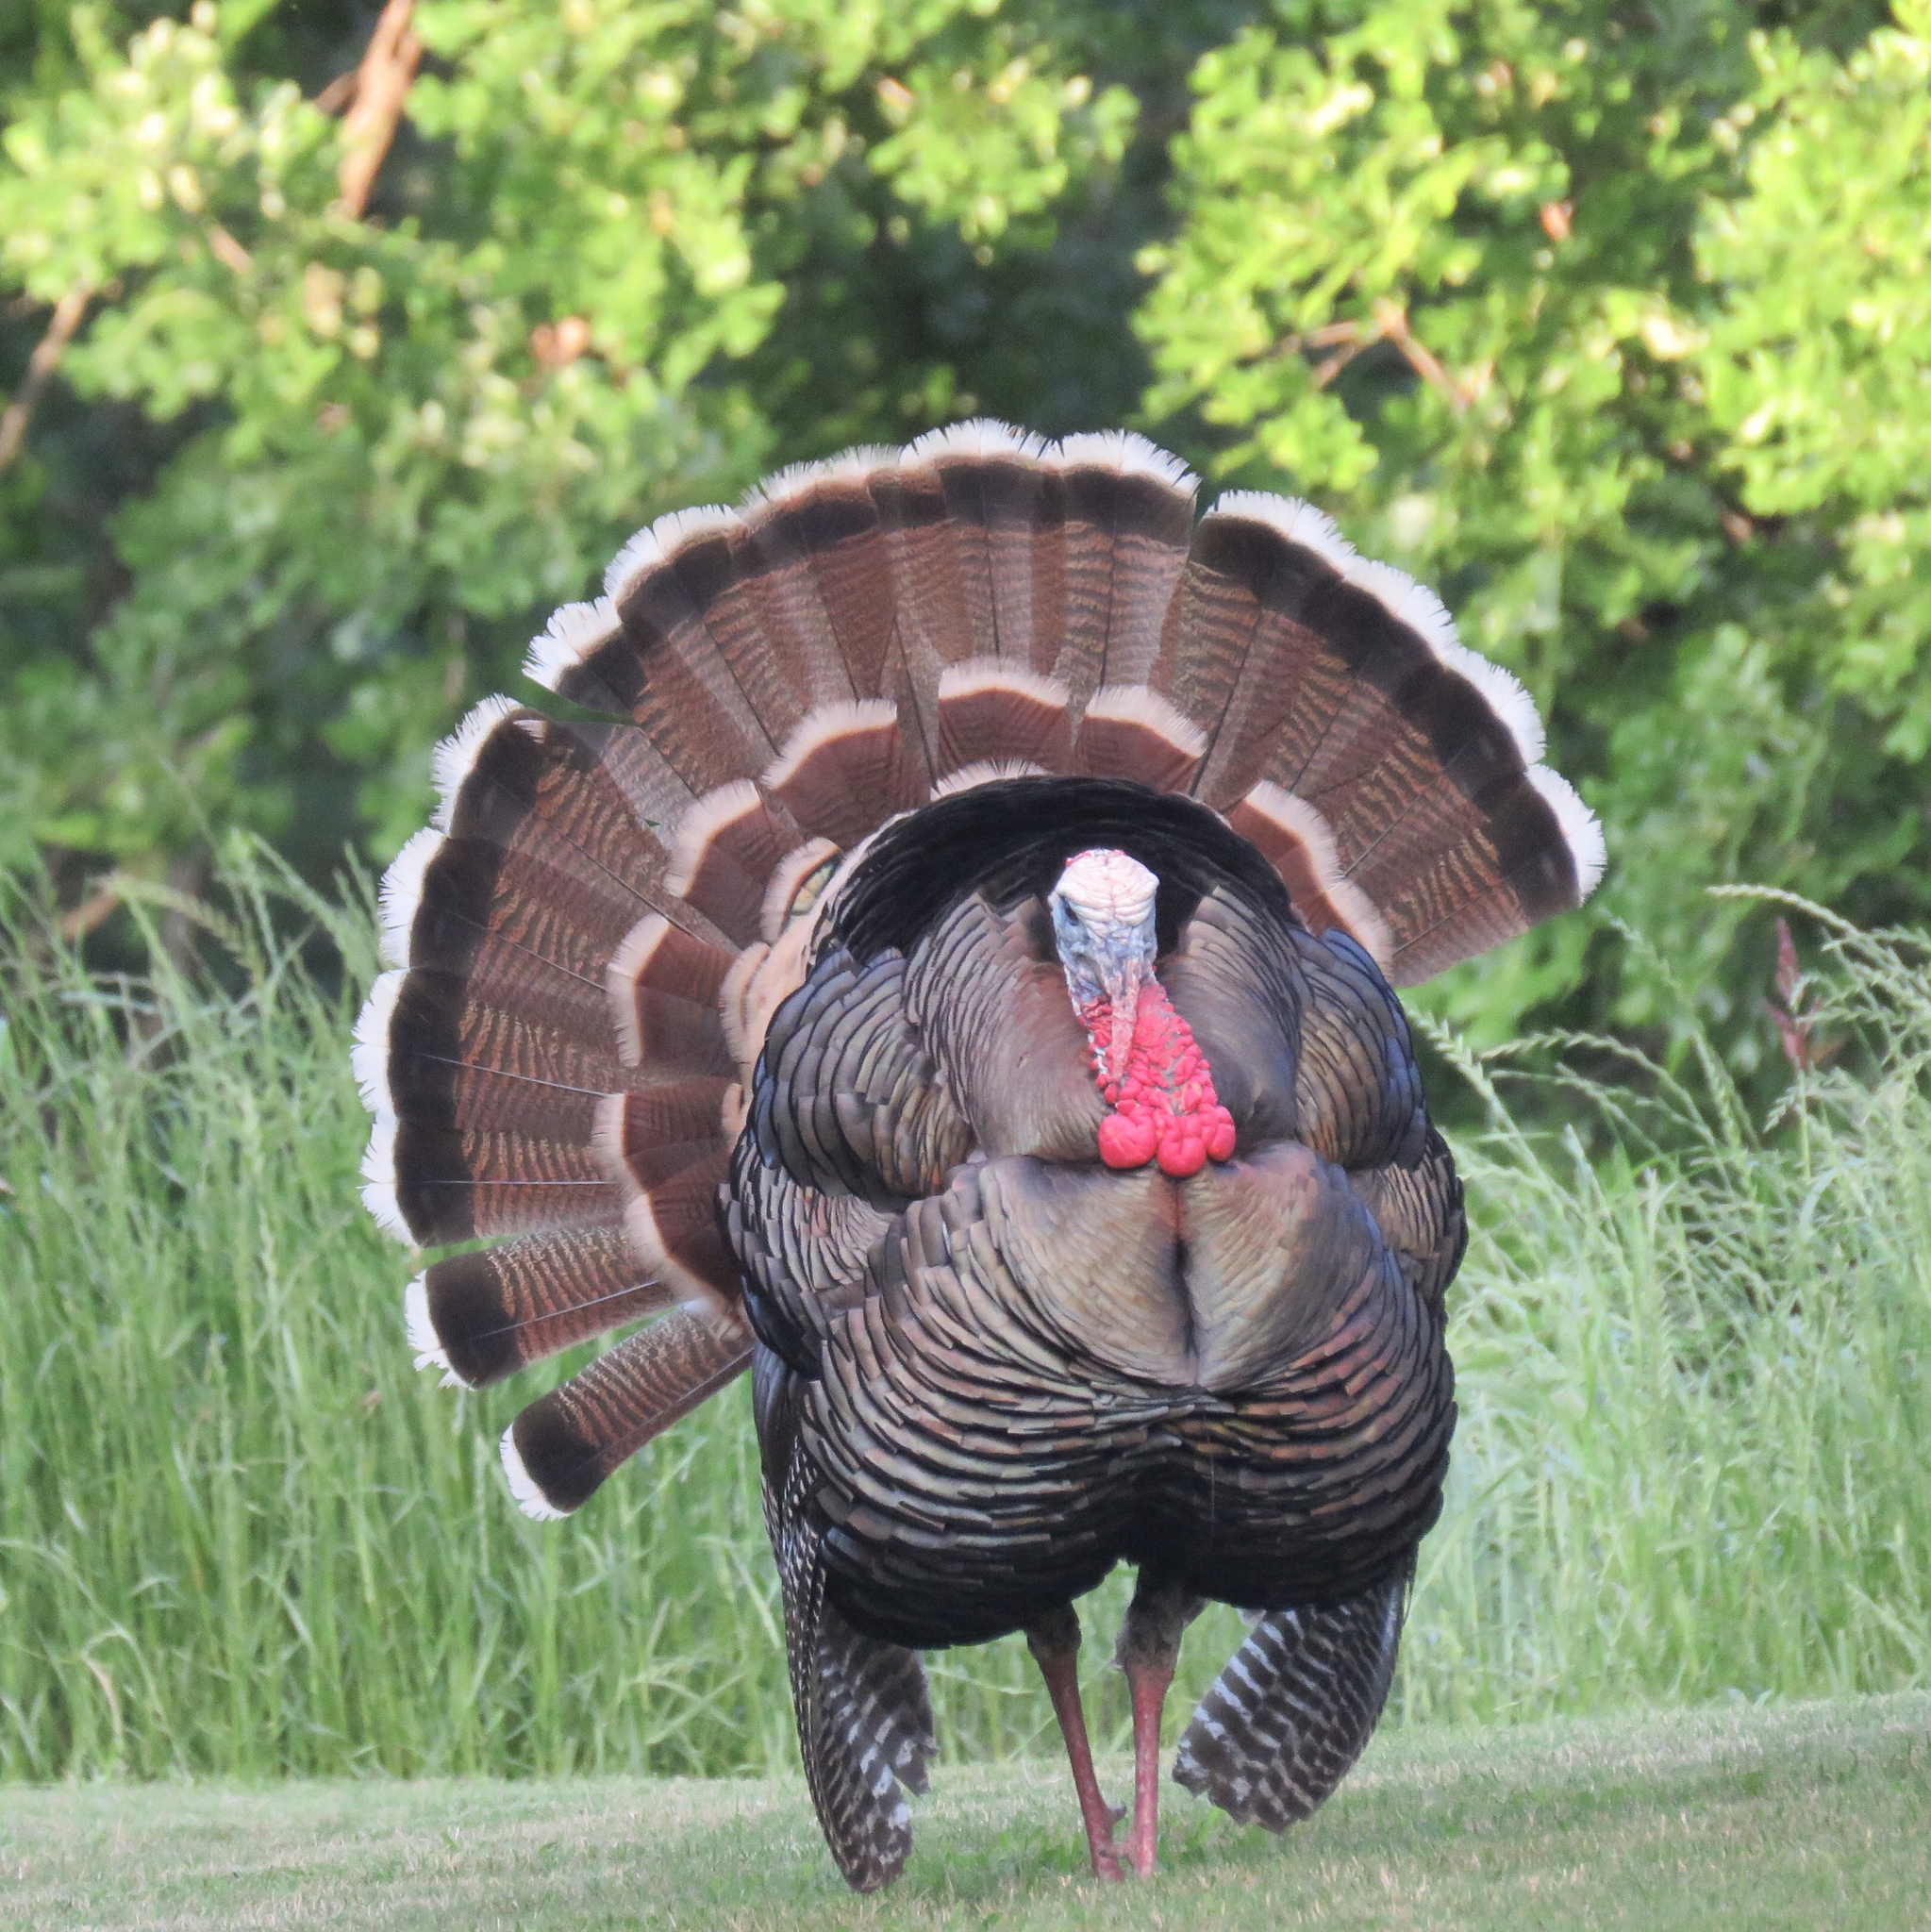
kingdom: Animalia
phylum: Chordata
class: Aves
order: Galliformes
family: Phasianidae
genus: Meleagris
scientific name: Meleagris gallopavo
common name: Wild turkey
